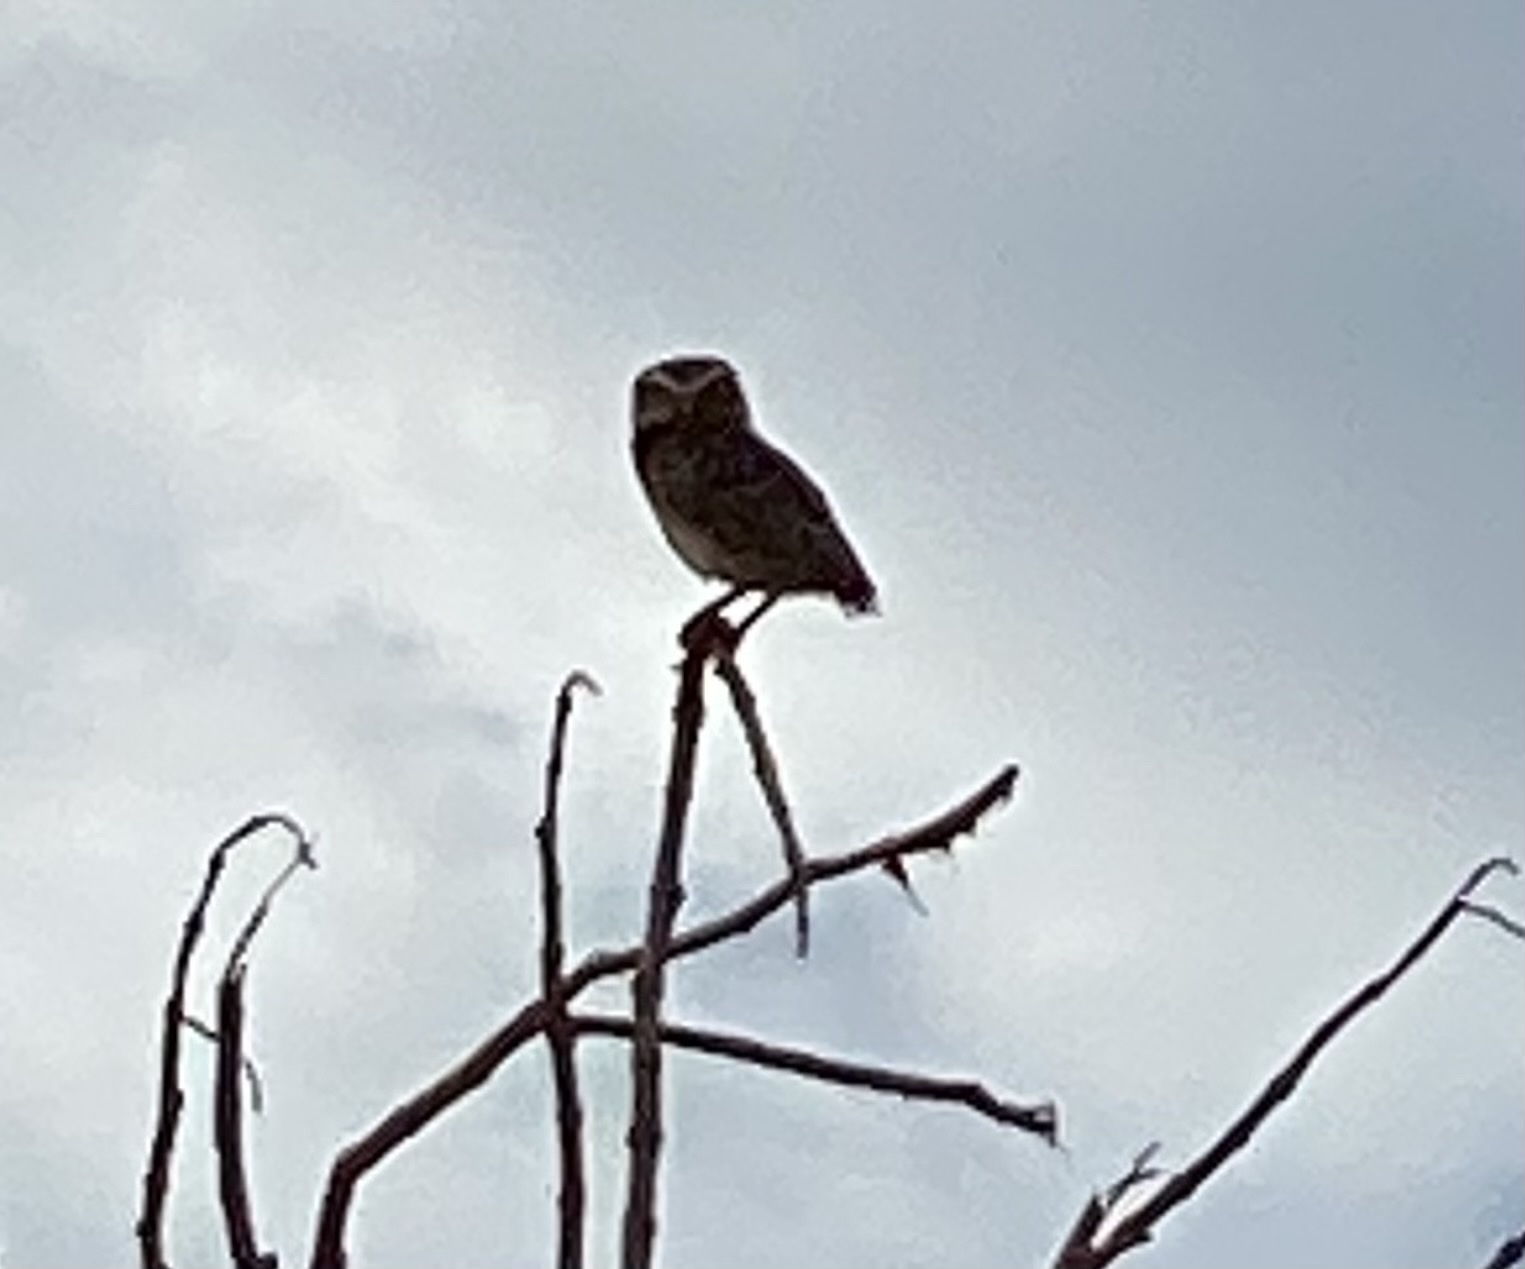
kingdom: Animalia
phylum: Chordata
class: Aves
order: Strigiformes
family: Strigidae
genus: Athene
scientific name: Athene cunicularia
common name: Burrowing owl
